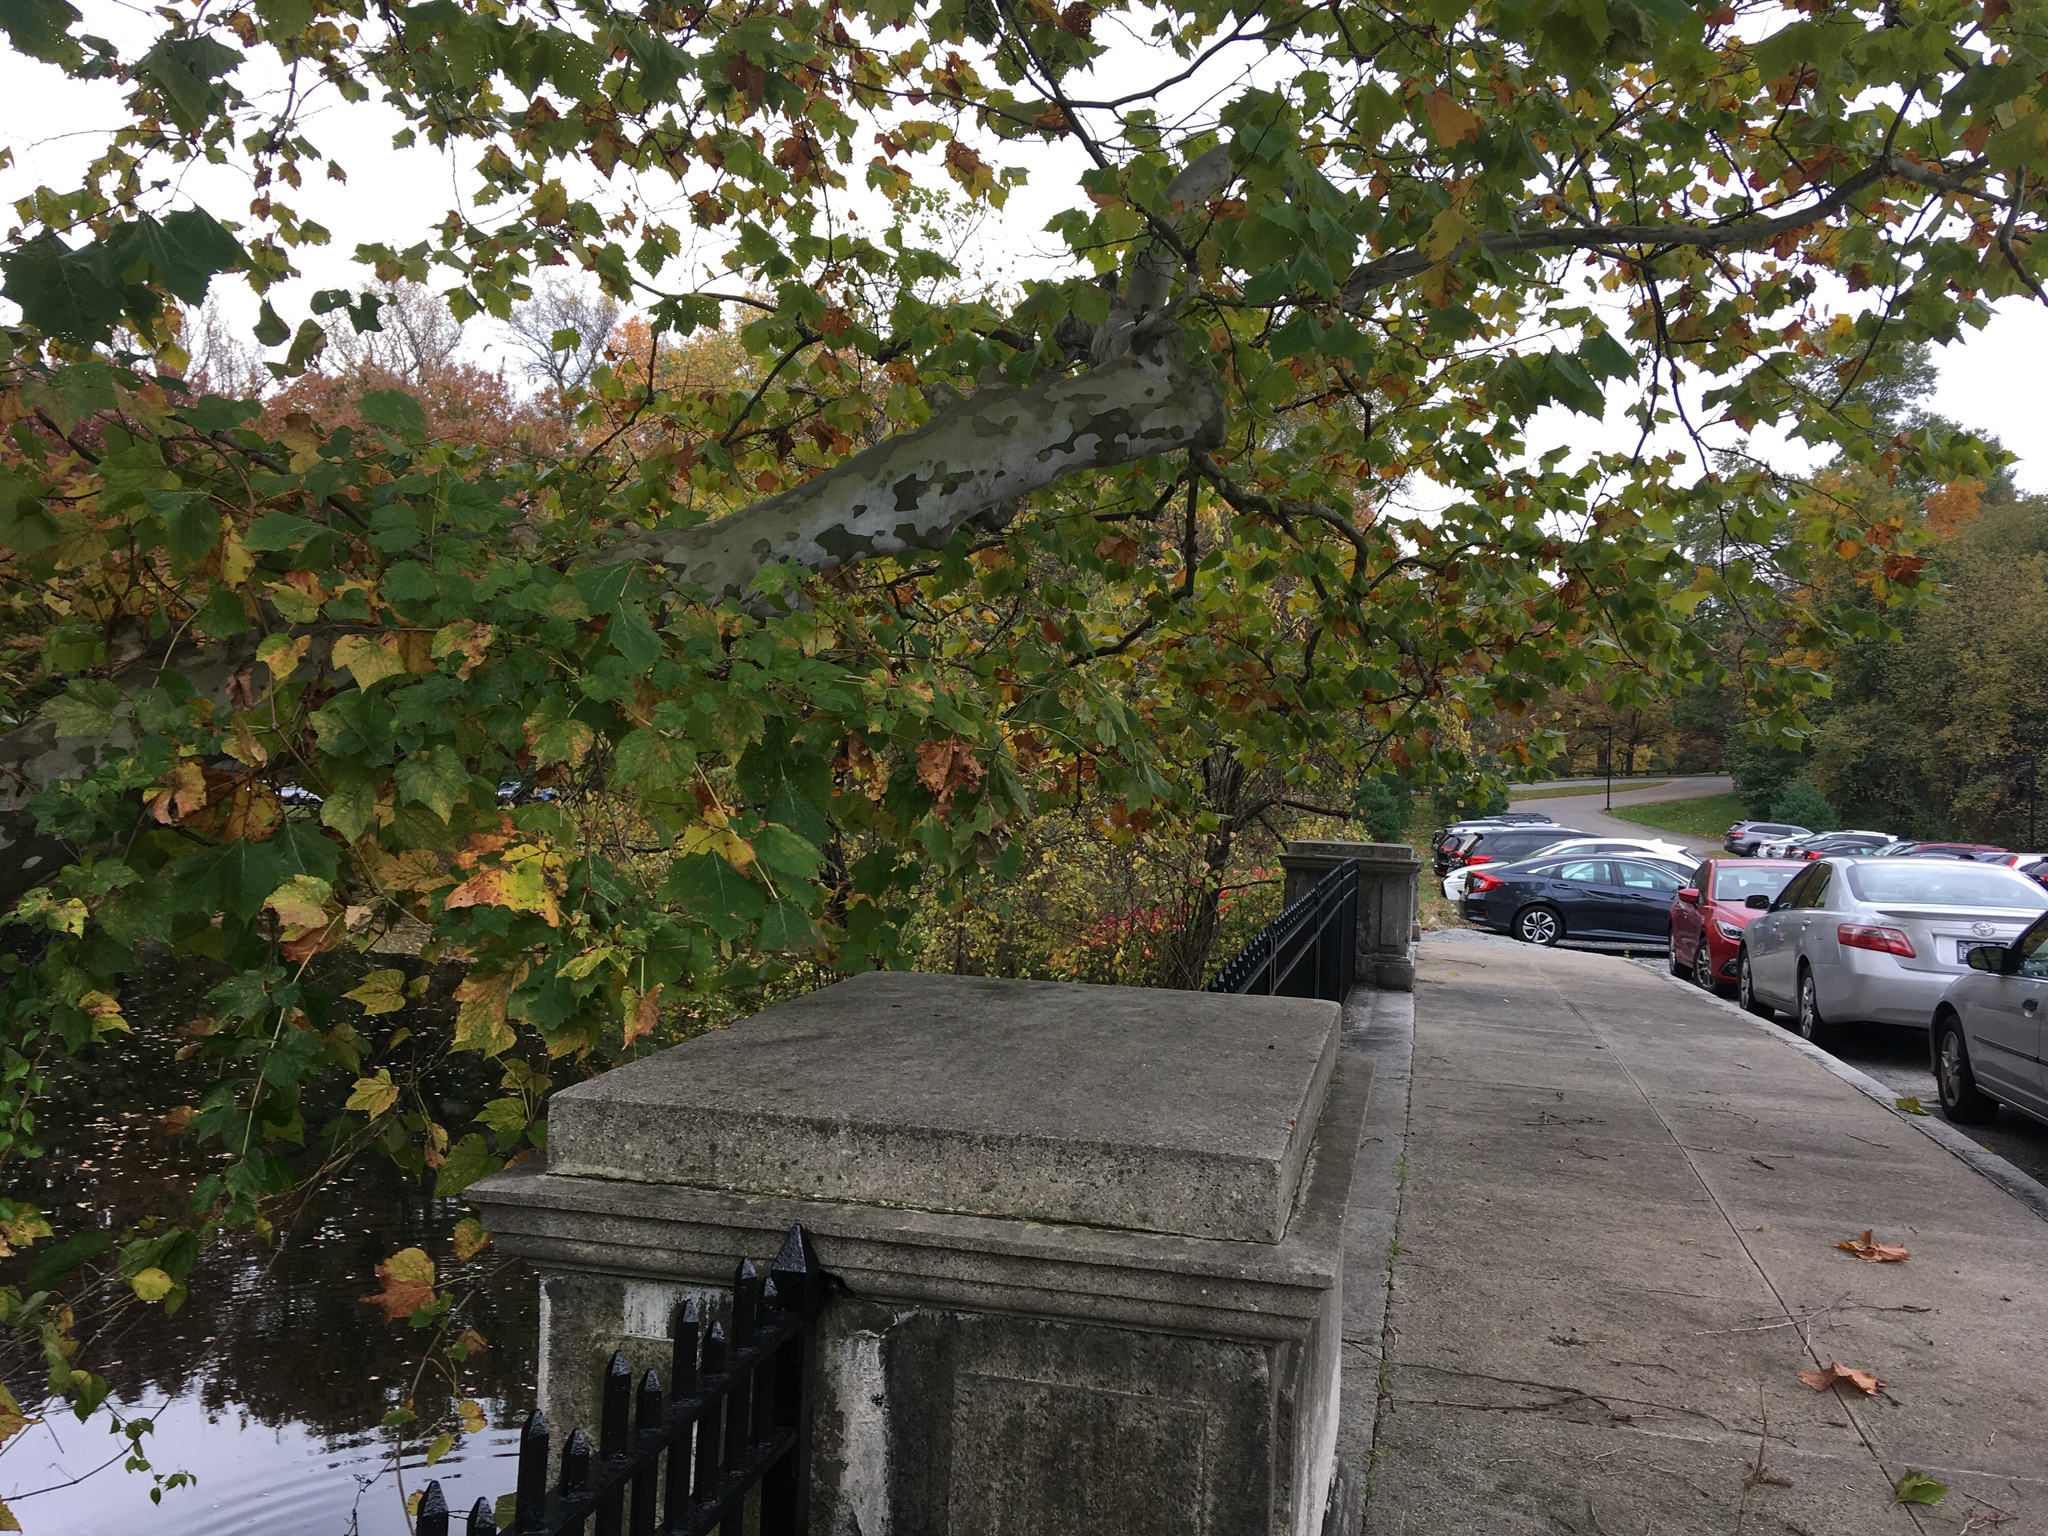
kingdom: Plantae
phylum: Tracheophyta
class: Magnoliopsida
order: Vitales
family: Vitaceae
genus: Ampelopsis
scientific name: Ampelopsis glandulosa
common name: Amur peppervine
